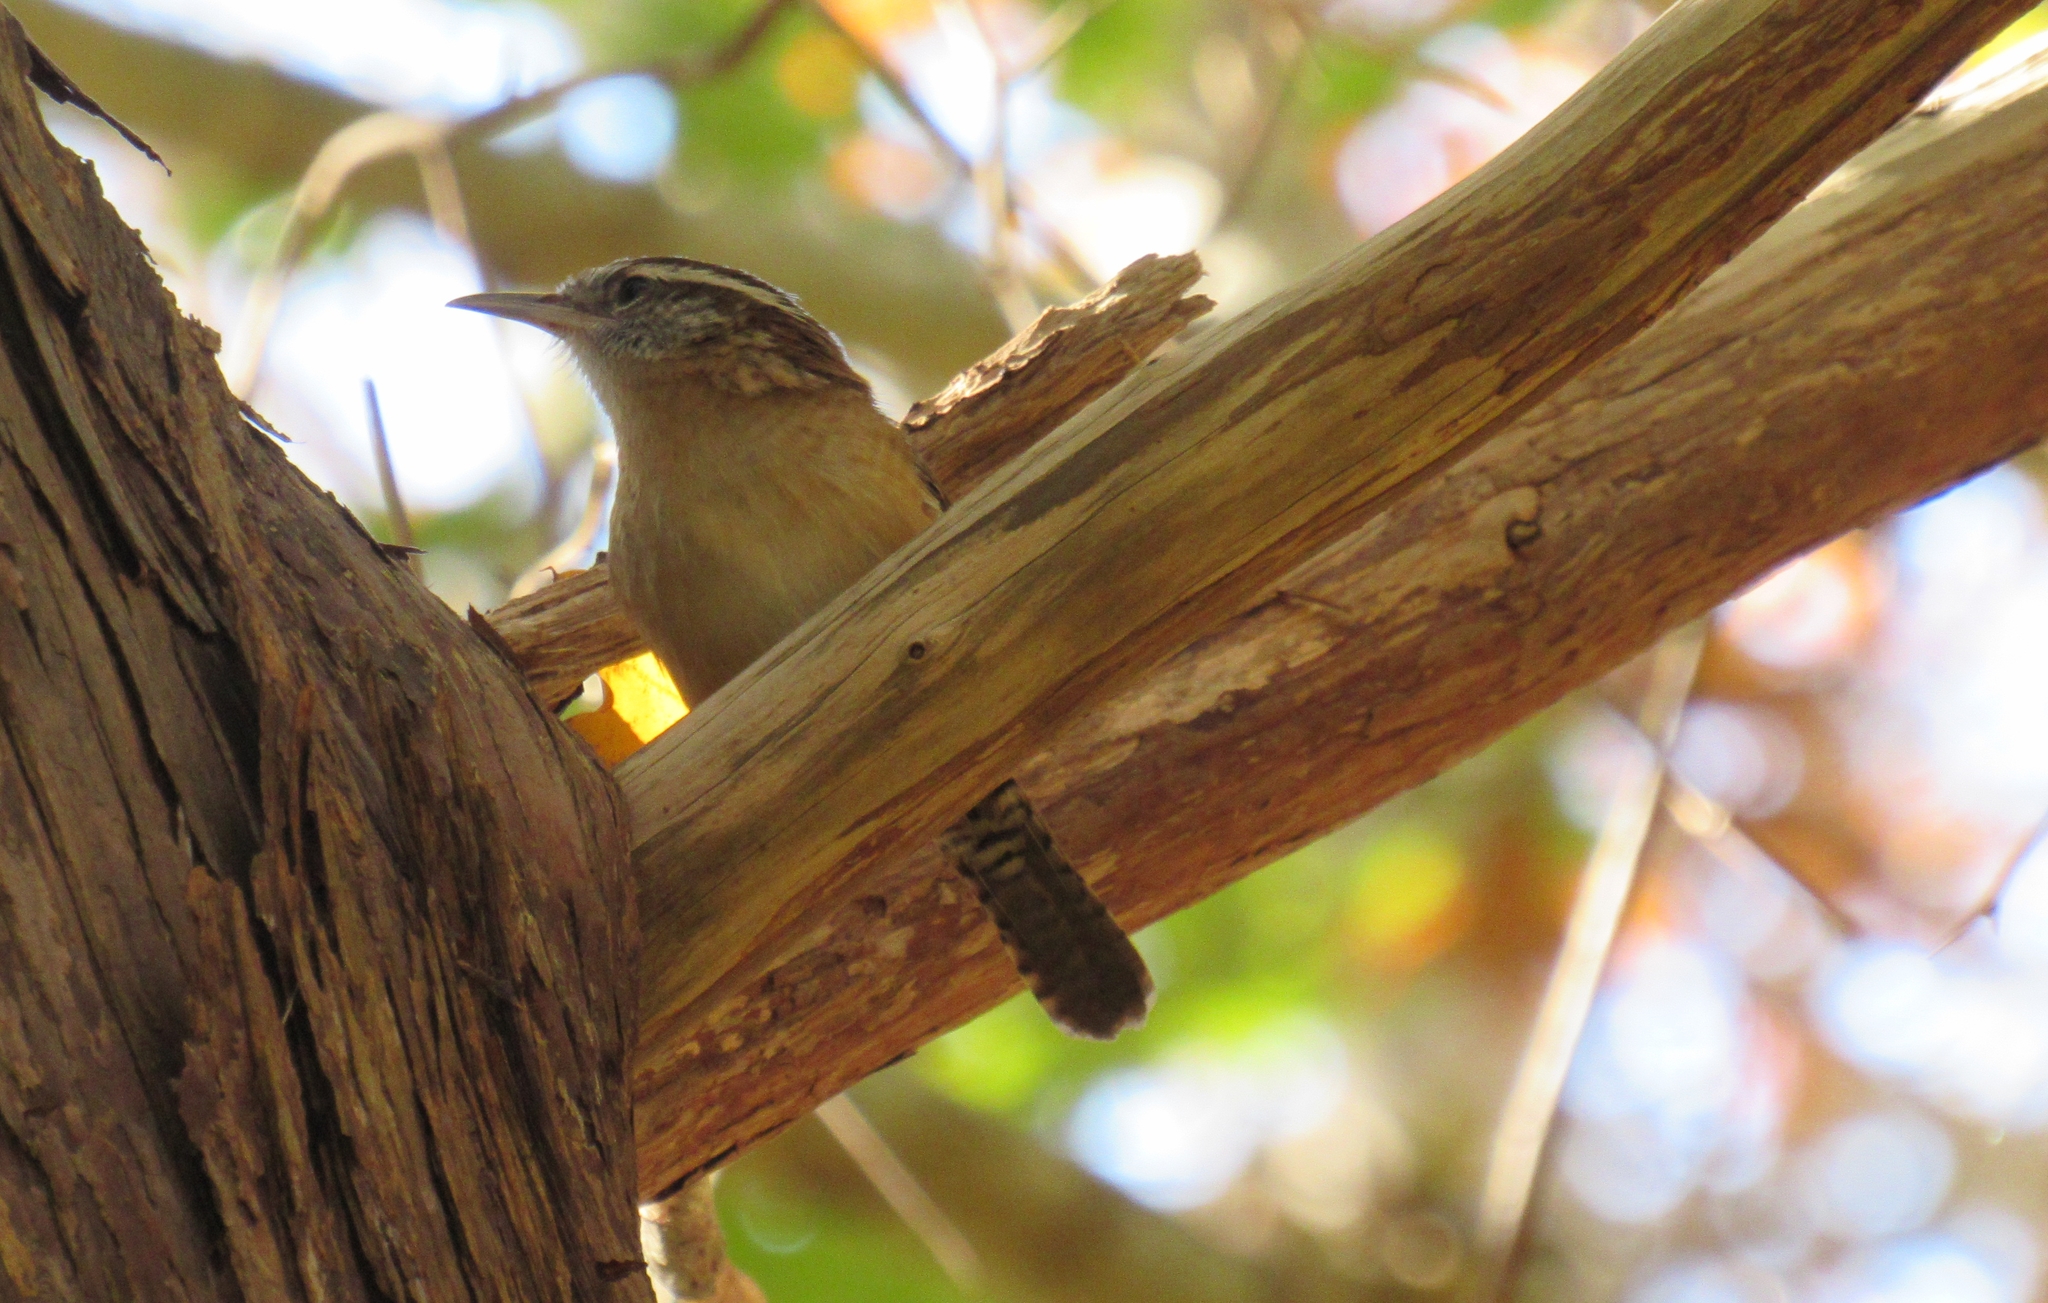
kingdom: Animalia
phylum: Chordata
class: Aves
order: Passeriformes
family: Troglodytidae
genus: Thryothorus
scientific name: Thryothorus ludovicianus
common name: Carolina wren
